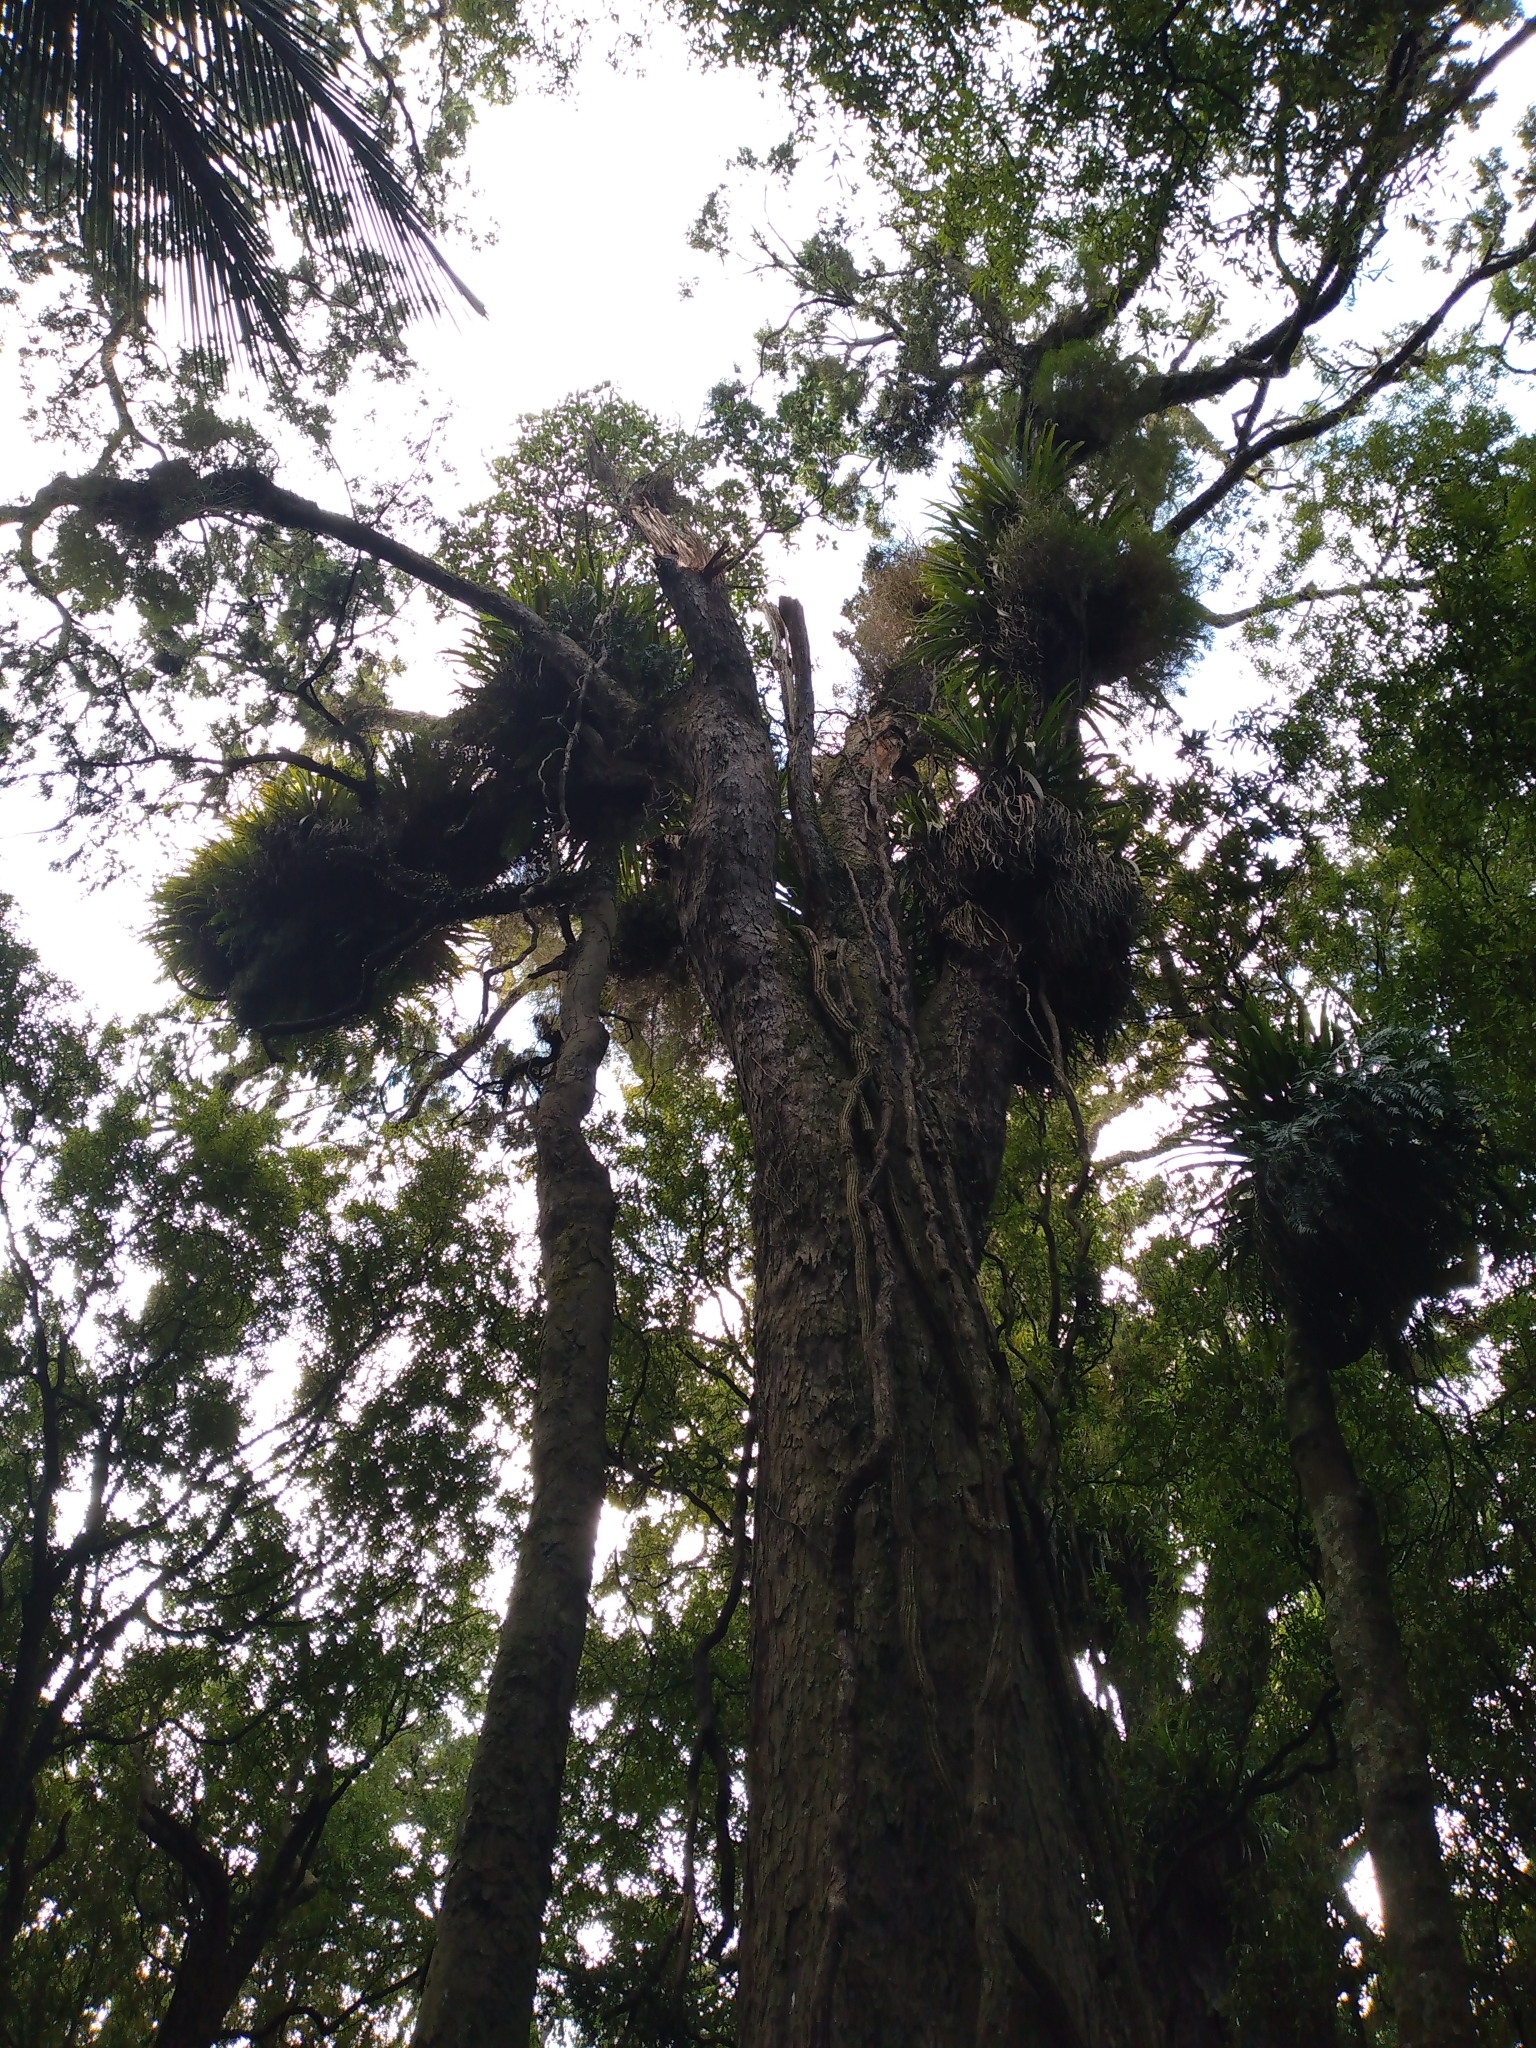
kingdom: Plantae
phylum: Tracheophyta
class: Liliopsida
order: Asparagales
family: Orchidaceae
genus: Bulbophyllum
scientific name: Bulbophyllum pygmaeum
